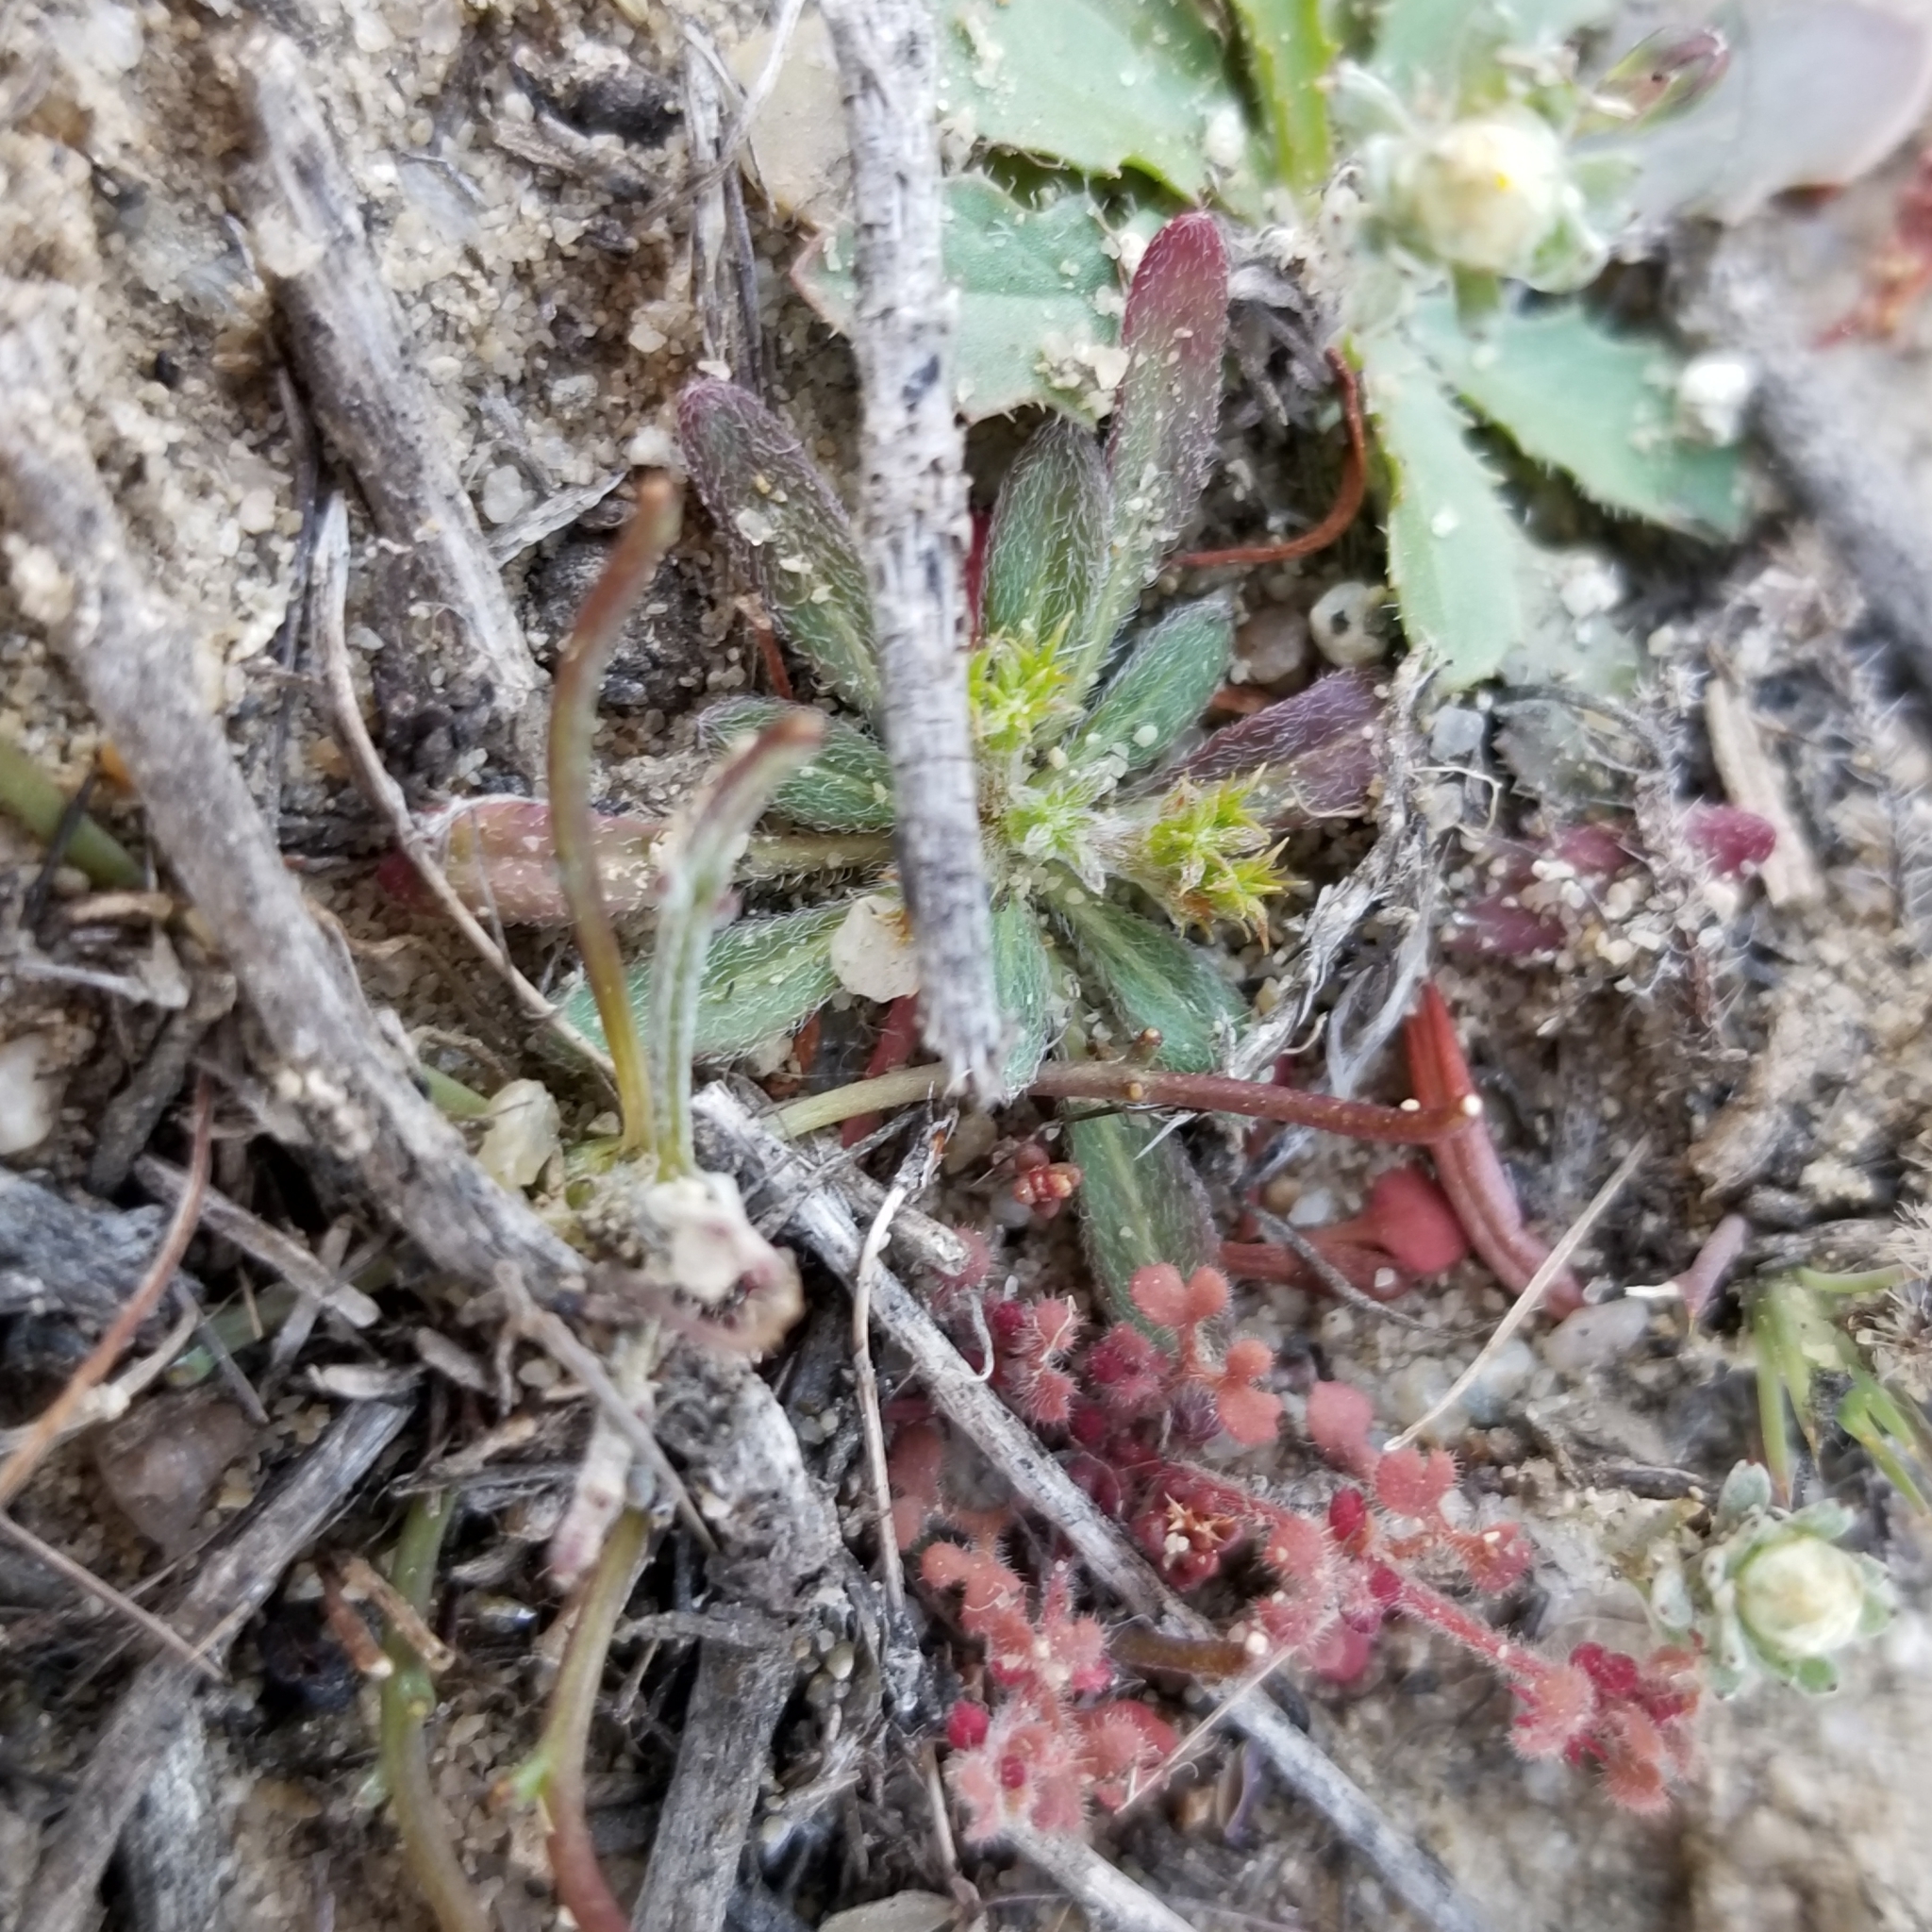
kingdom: Plantae
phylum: Tracheophyta
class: Magnoliopsida
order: Caryophyllales
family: Polygonaceae
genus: Chorizanthe
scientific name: Chorizanthe procumbens
